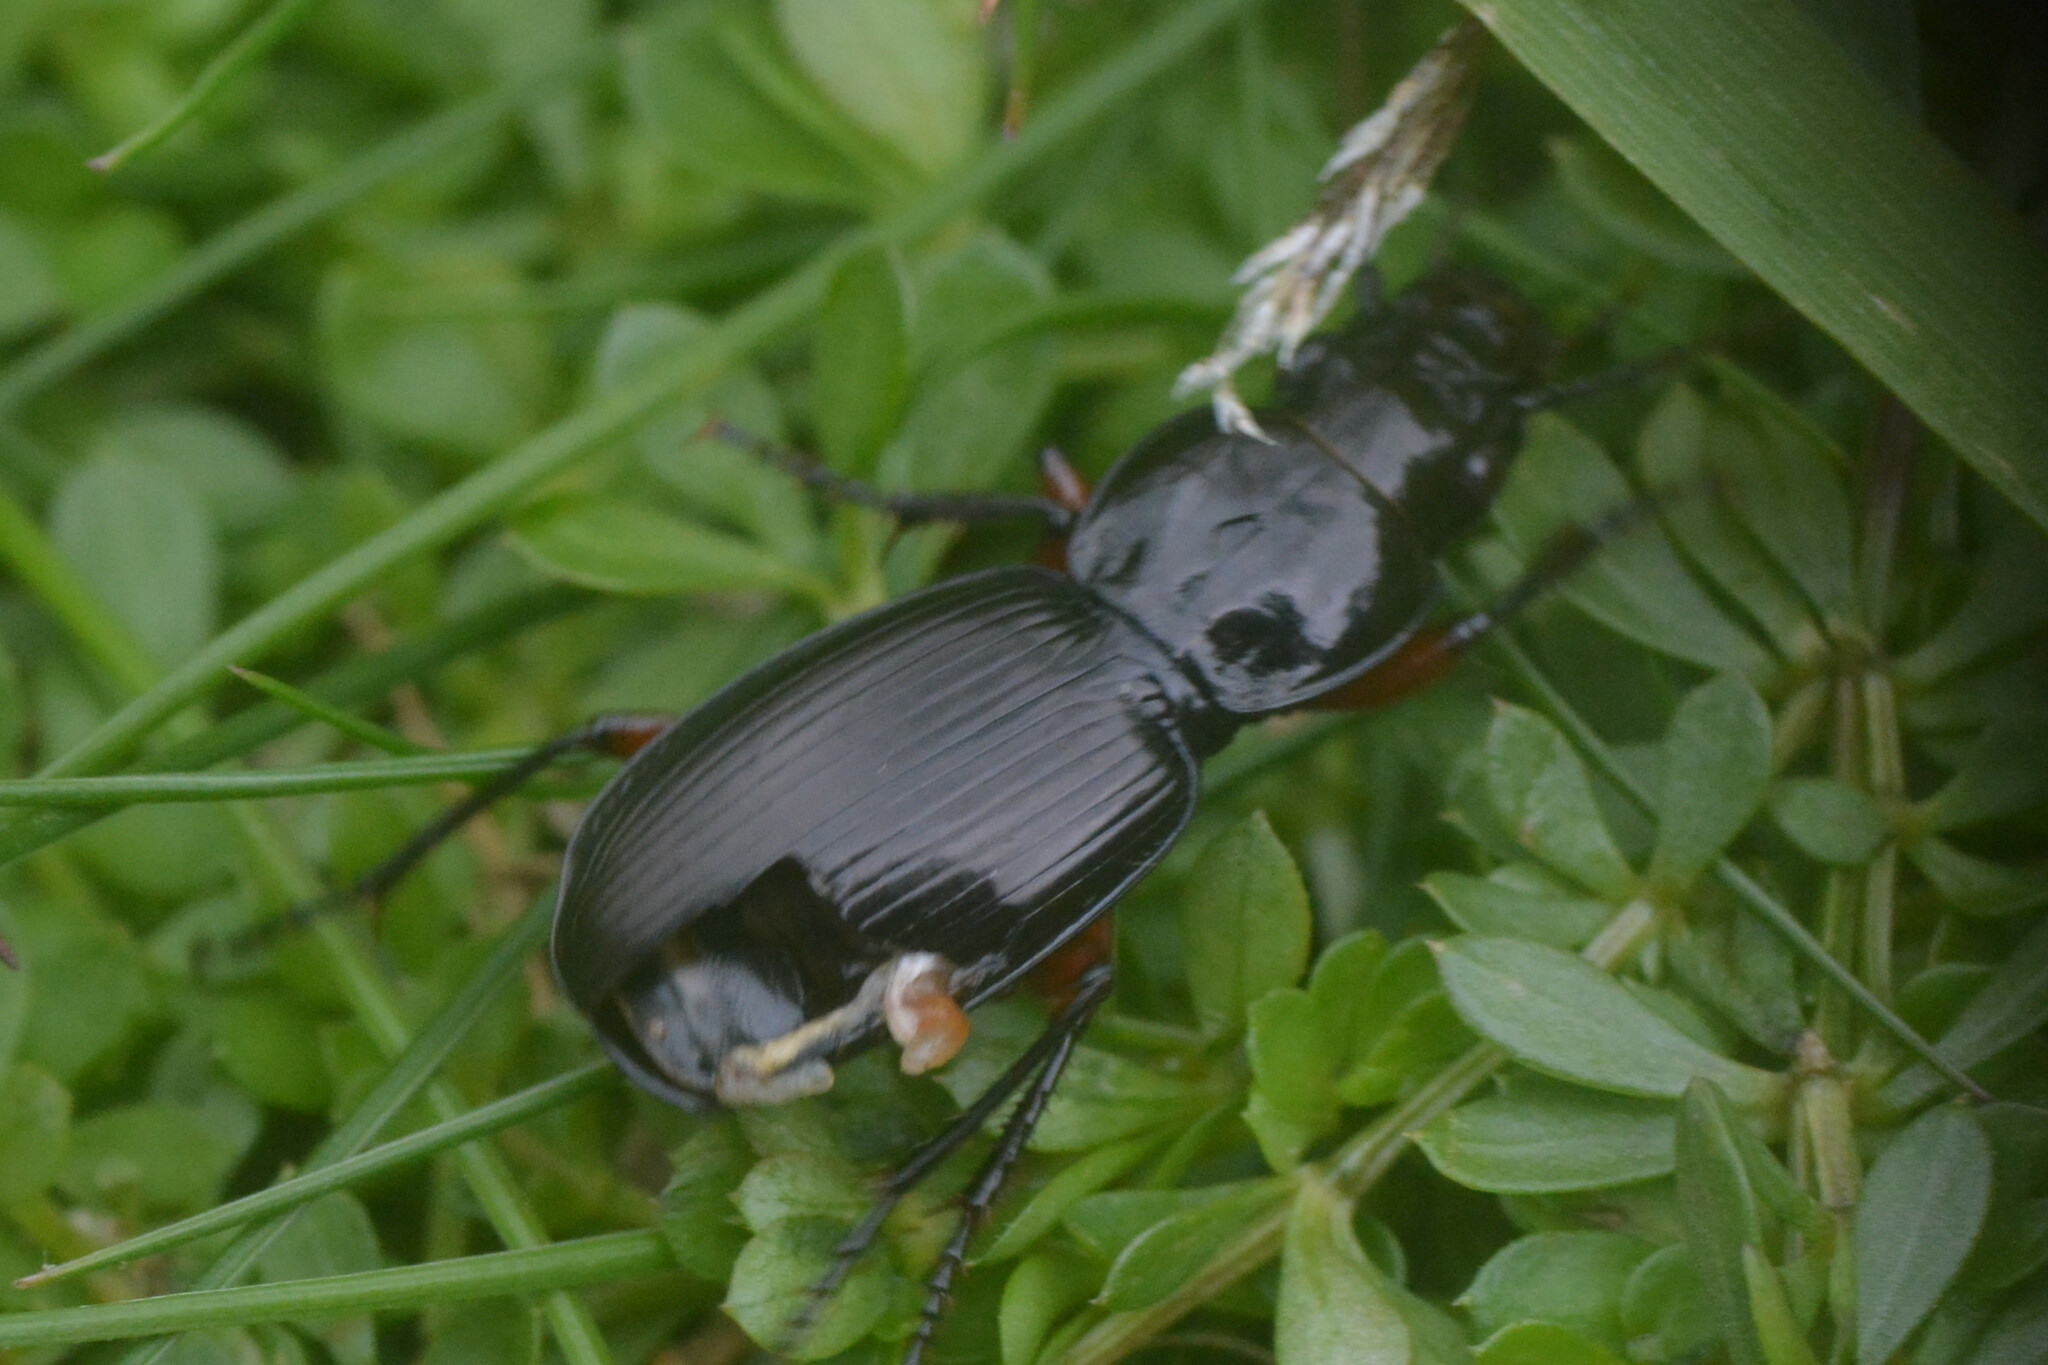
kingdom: Animalia
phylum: Arthropoda
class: Insecta
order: Coleoptera
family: Carabidae
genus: Pterostichus
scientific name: Pterostichus madidus
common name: Black clock
